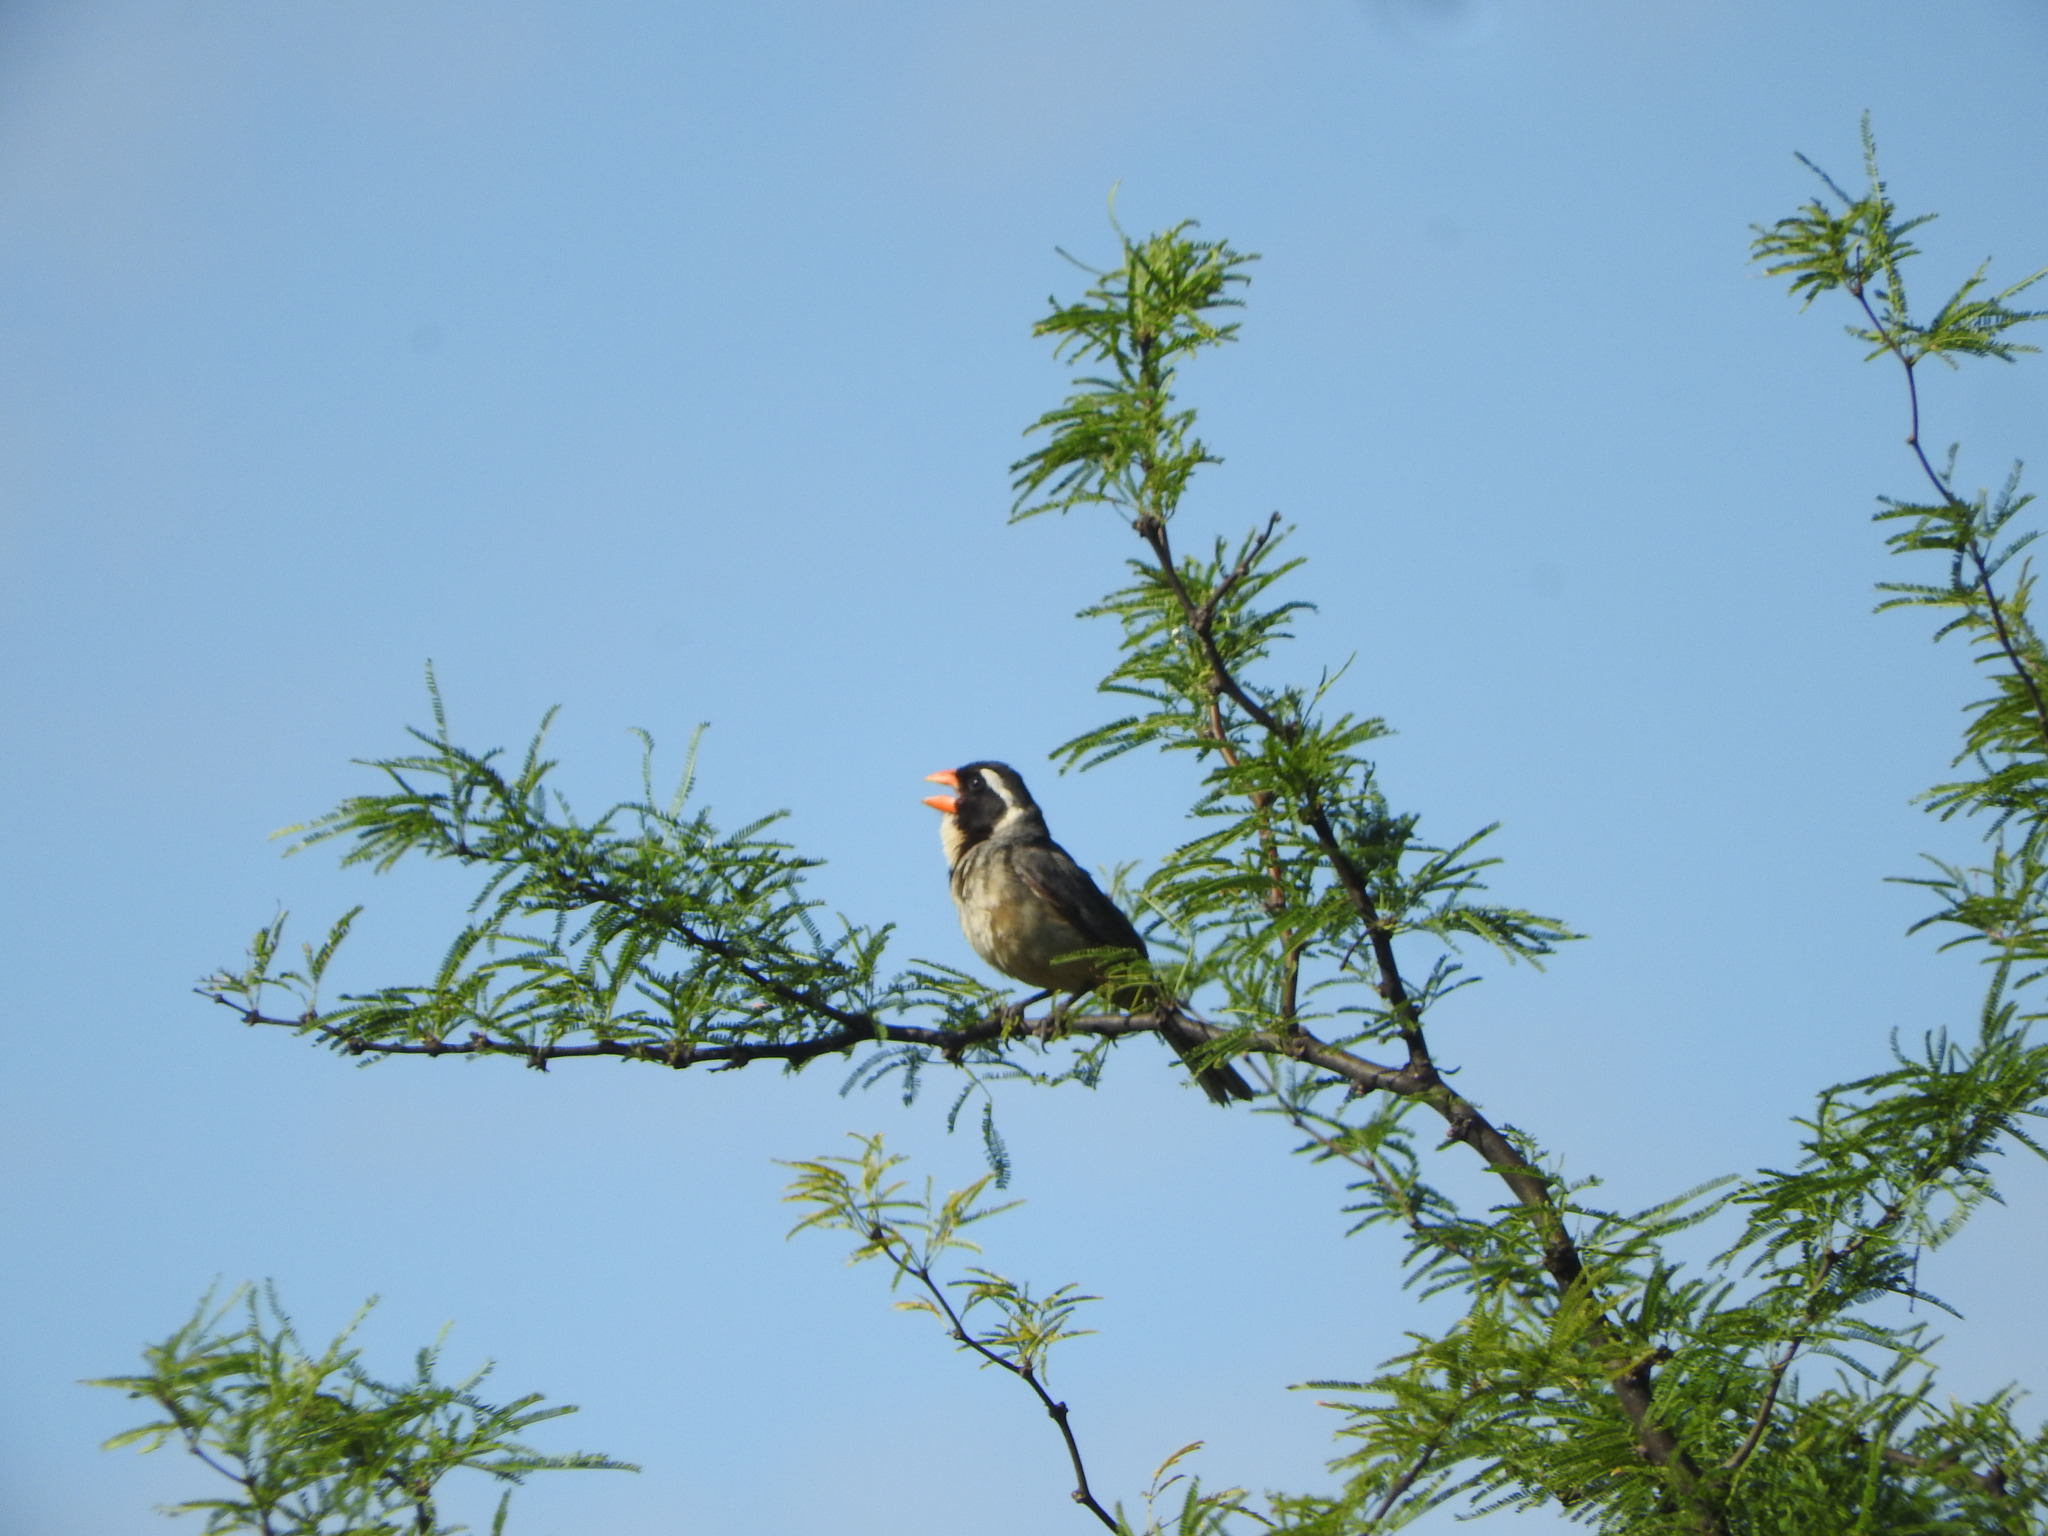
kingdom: Animalia
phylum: Chordata
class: Aves
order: Passeriformes
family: Thraupidae
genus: Saltator
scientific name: Saltator aurantiirostris
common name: Golden-billed saltator
